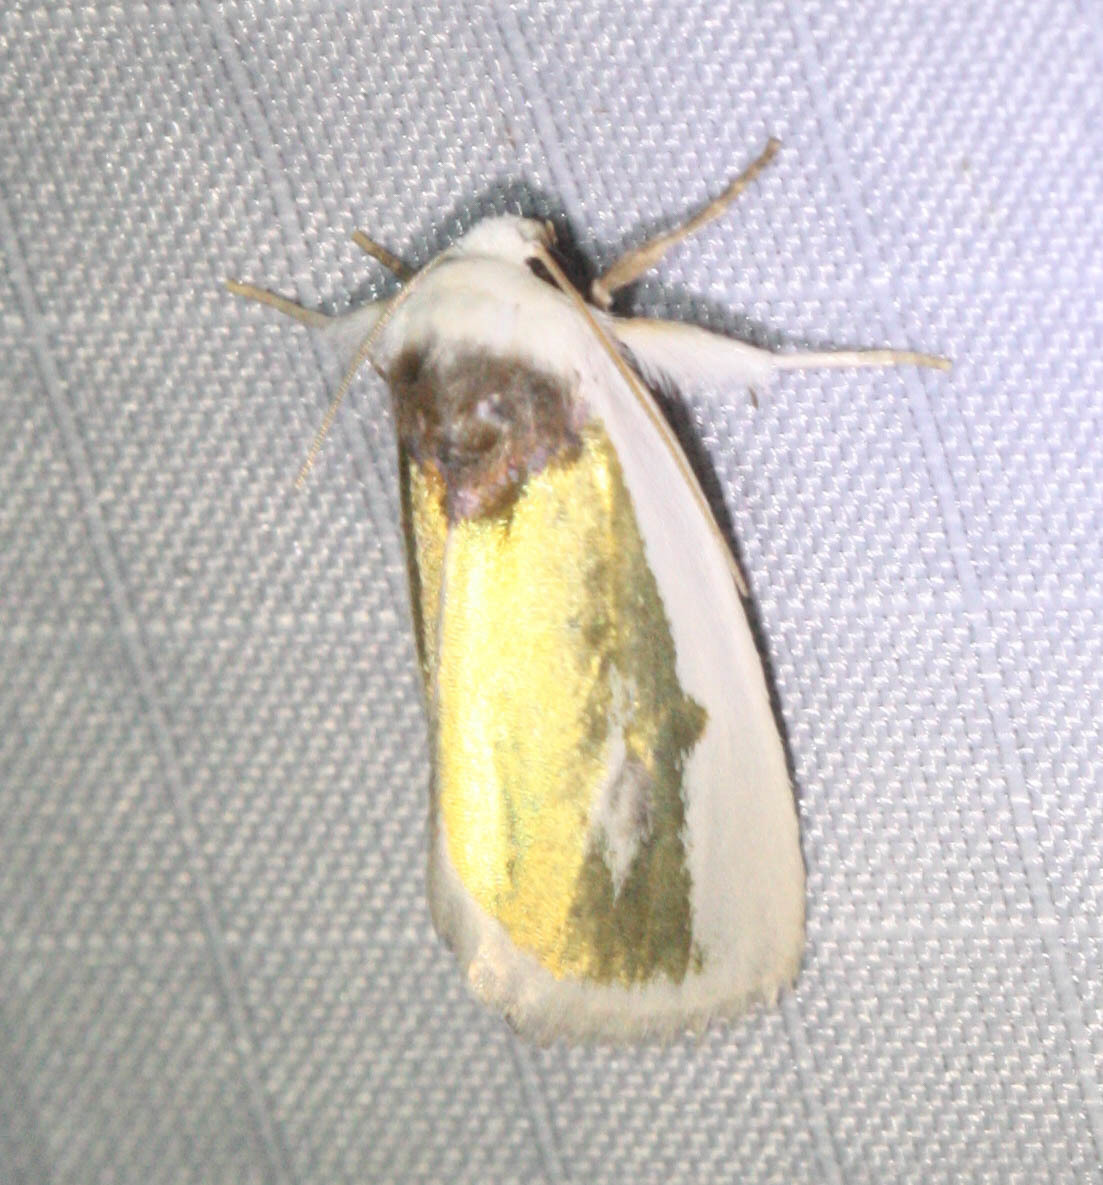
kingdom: Animalia
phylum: Arthropoda
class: Insecta
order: Lepidoptera
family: Noctuidae
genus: Neumoegenia
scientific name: Neumoegenia poetica
